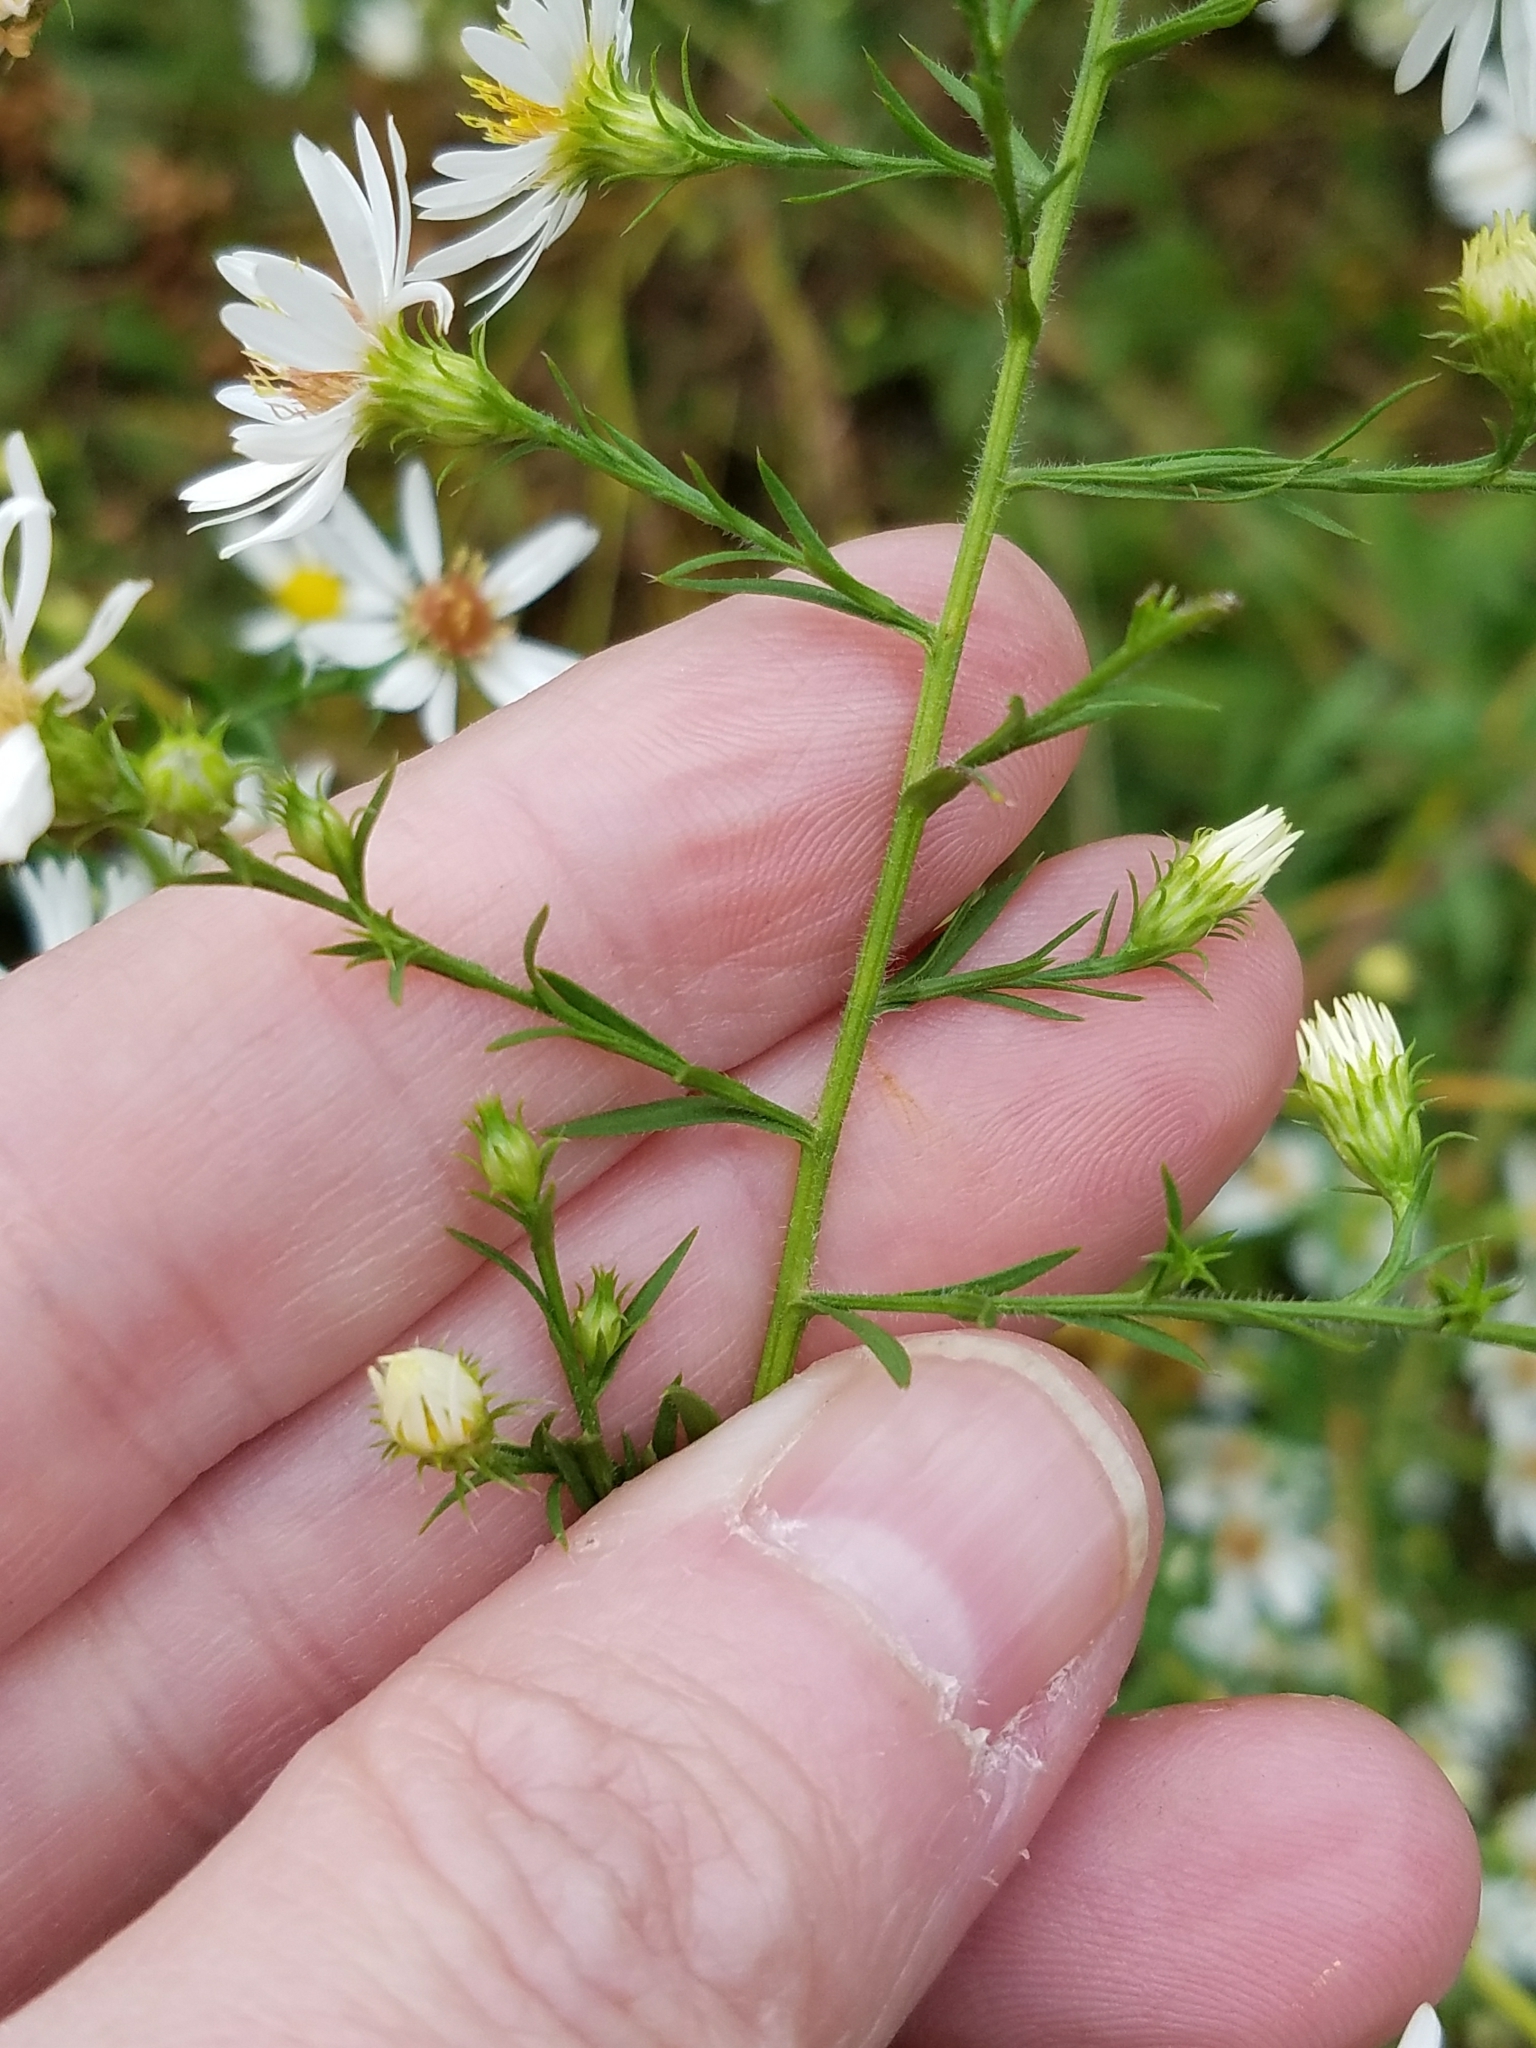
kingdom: Plantae
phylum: Tracheophyta
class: Magnoliopsida
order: Asterales
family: Asteraceae
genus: Symphyotrichum
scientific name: Symphyotrichum pilosum
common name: Awl aster
